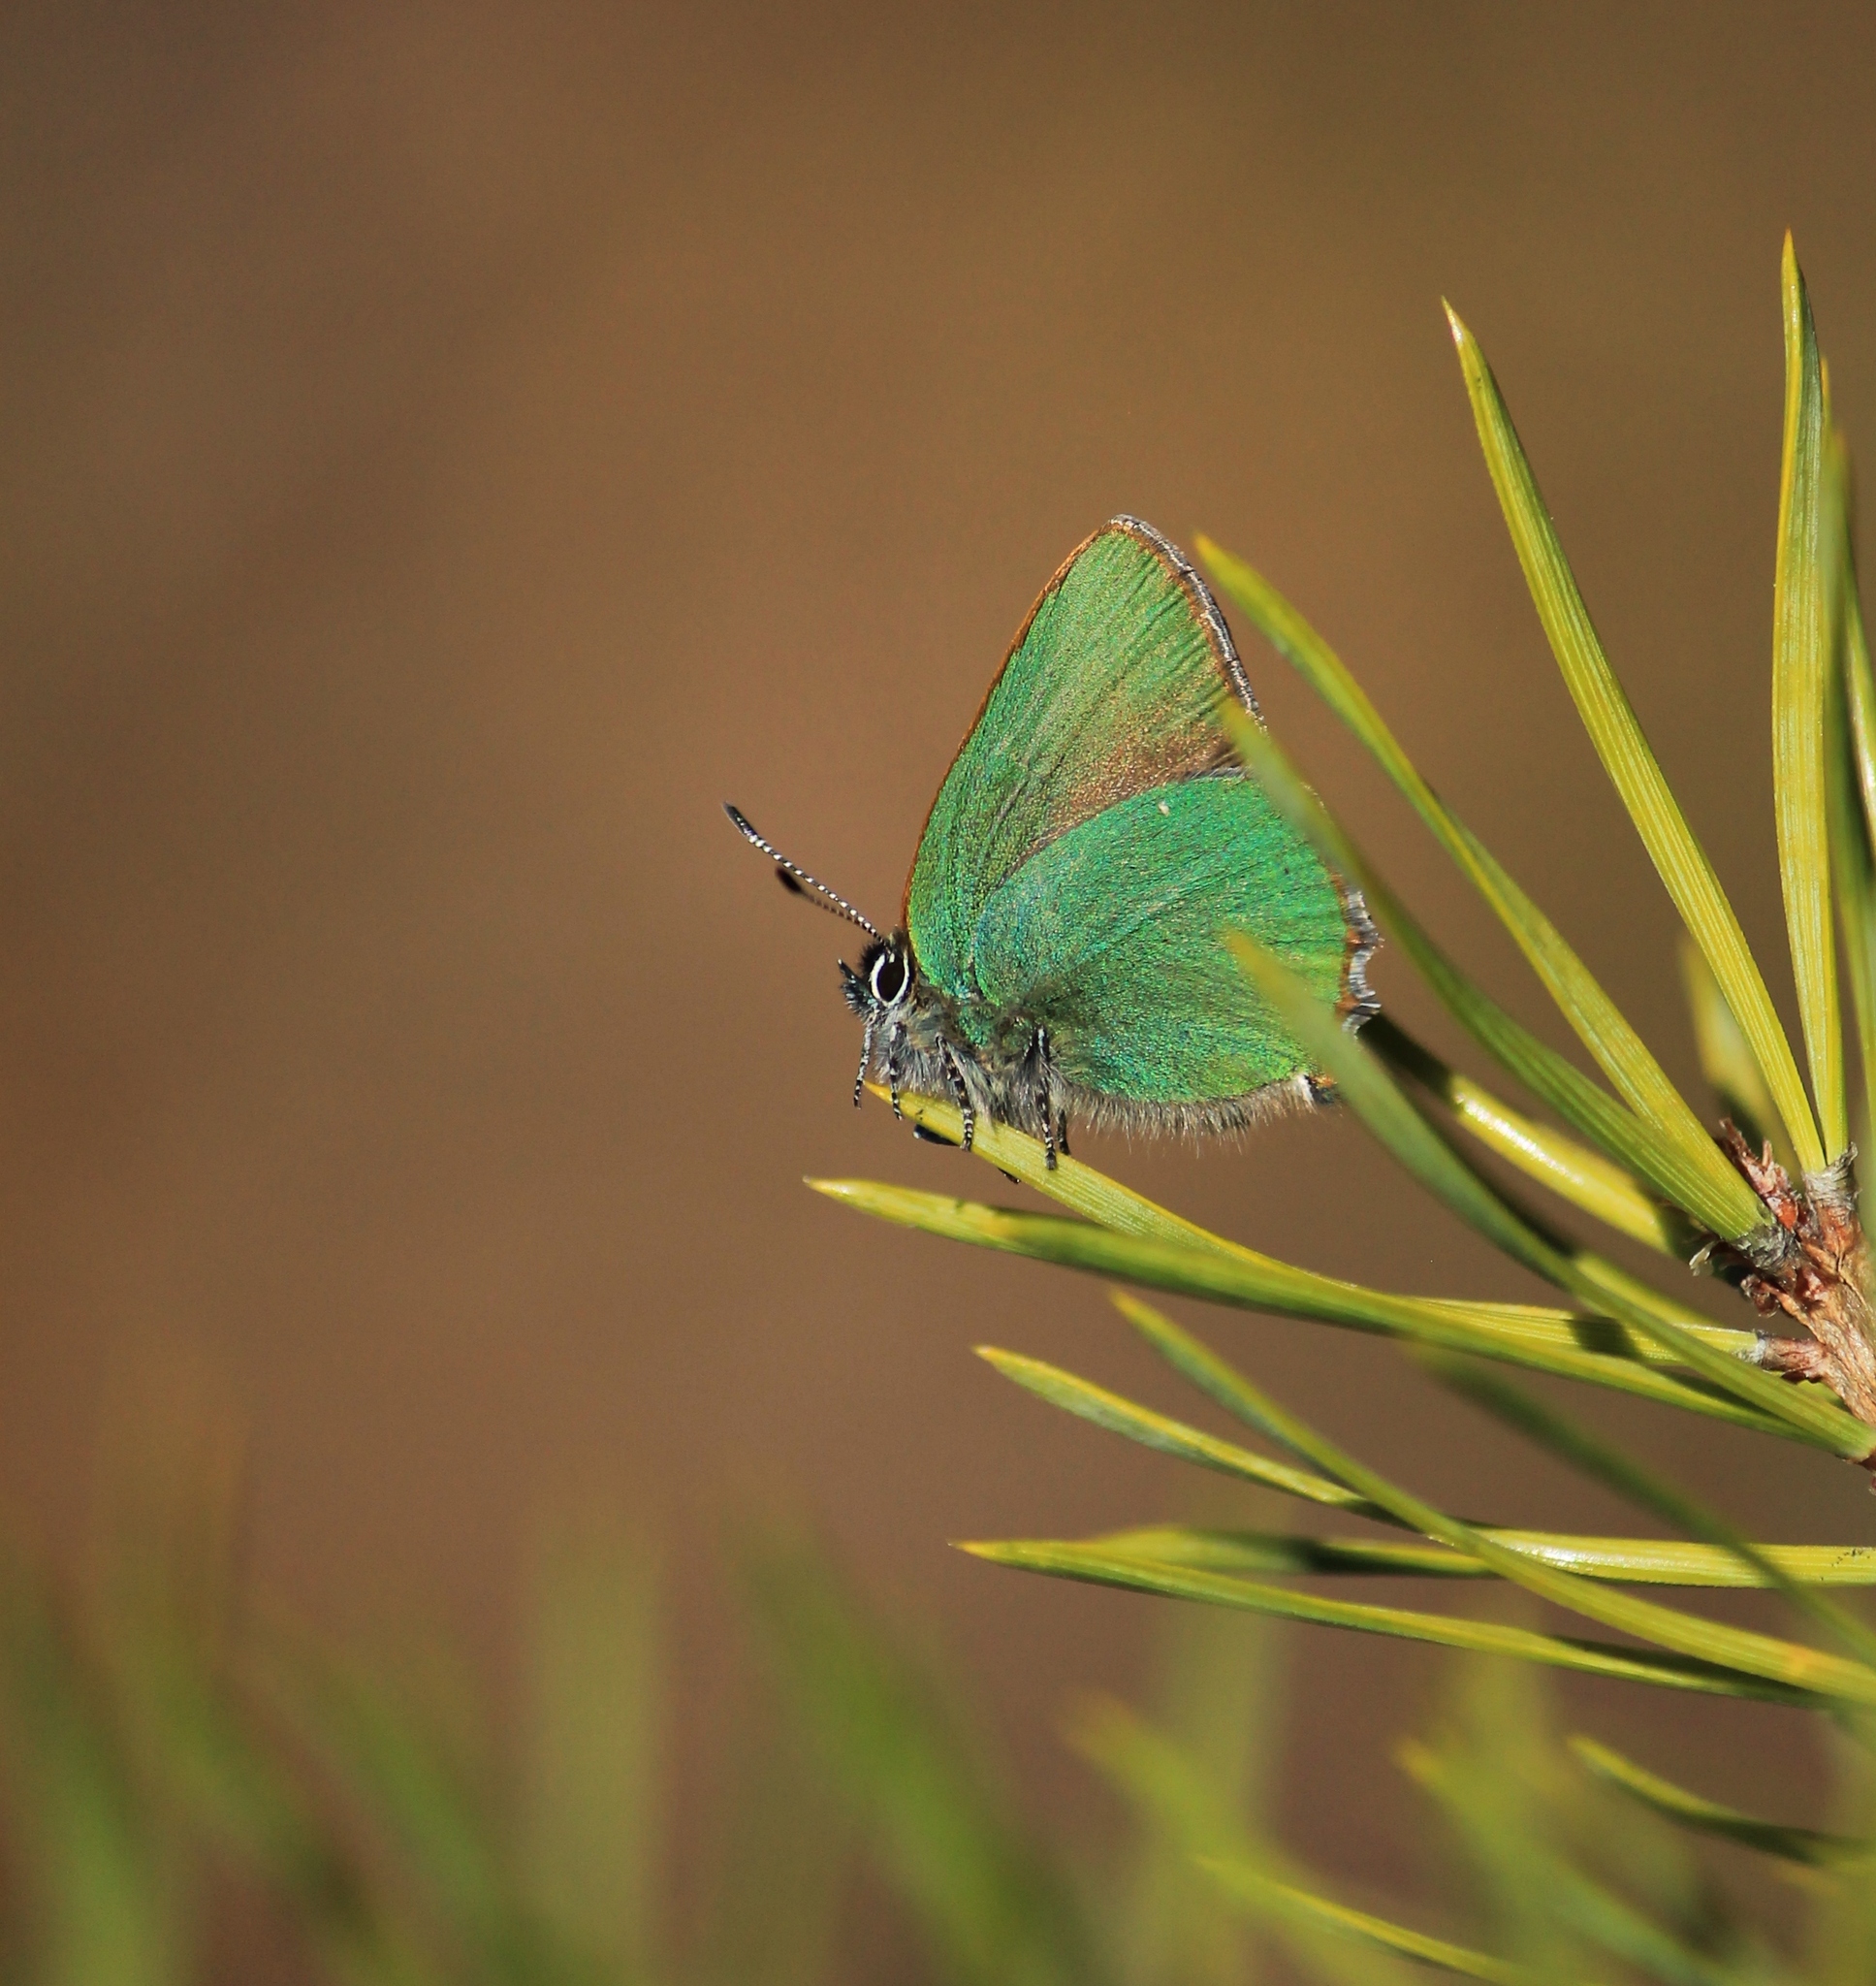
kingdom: Animalia
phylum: Arthropoda
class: Insecta
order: Lepidoptera
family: Lycaenidae
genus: Callophrys
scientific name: Callophrys rubi
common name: Green hairstreak
